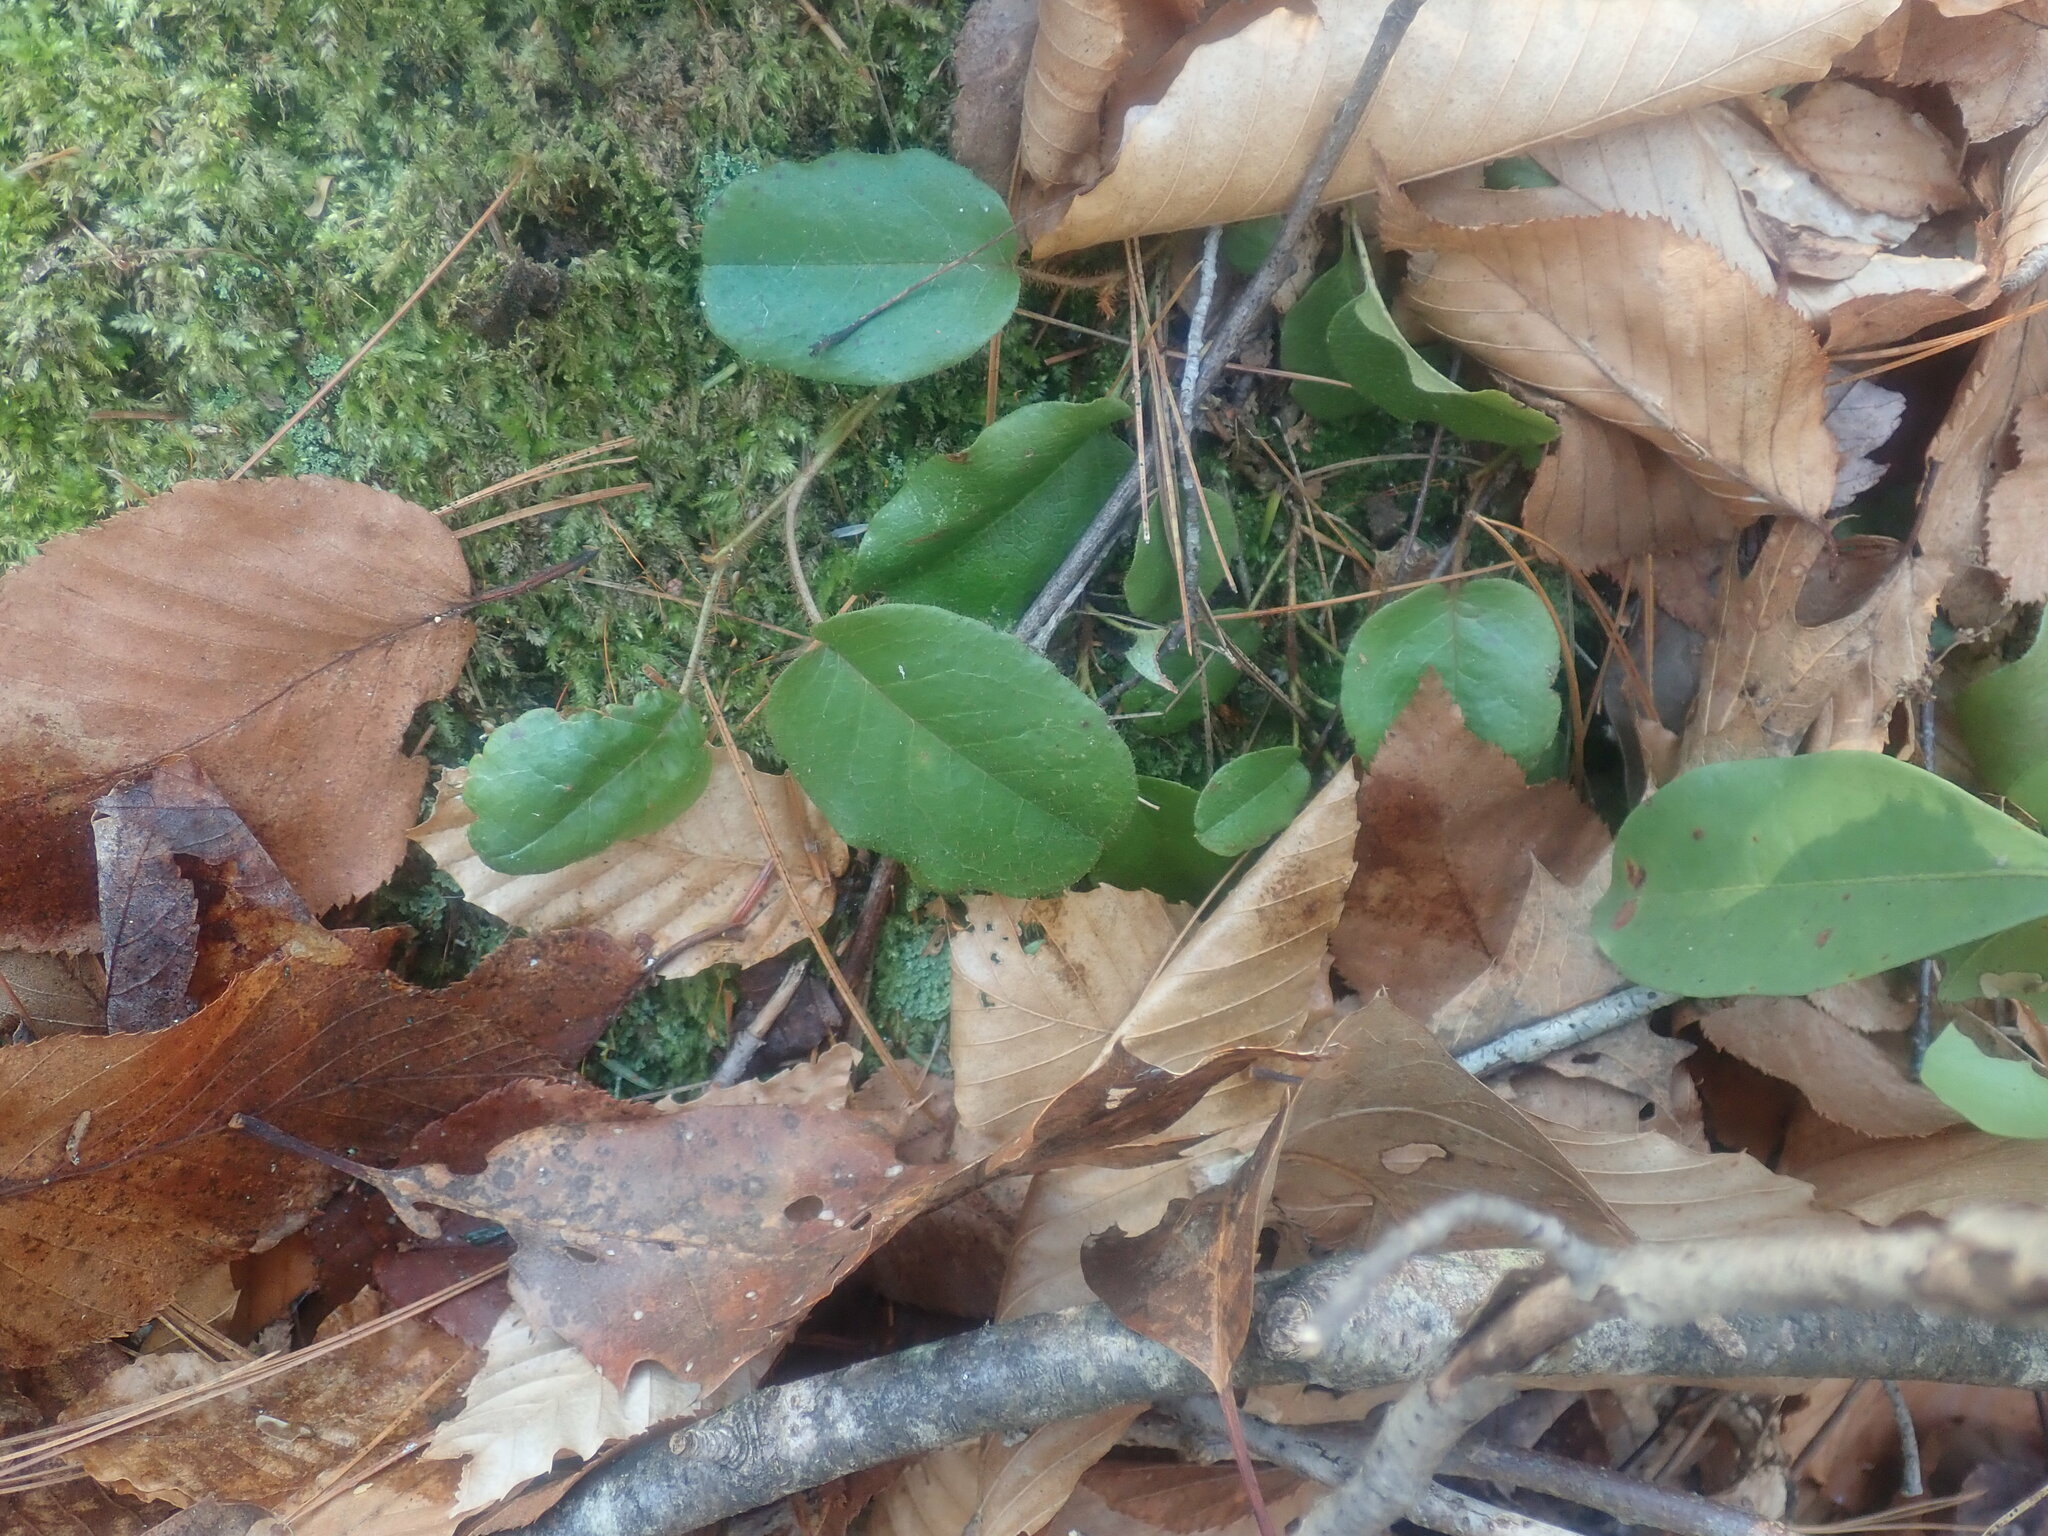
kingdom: Plantae
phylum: Tracheophyta
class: Magnoliopsida
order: Ericales
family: Ericaceae
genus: Epigaea
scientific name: Epigaea repens
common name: Gravelroot
